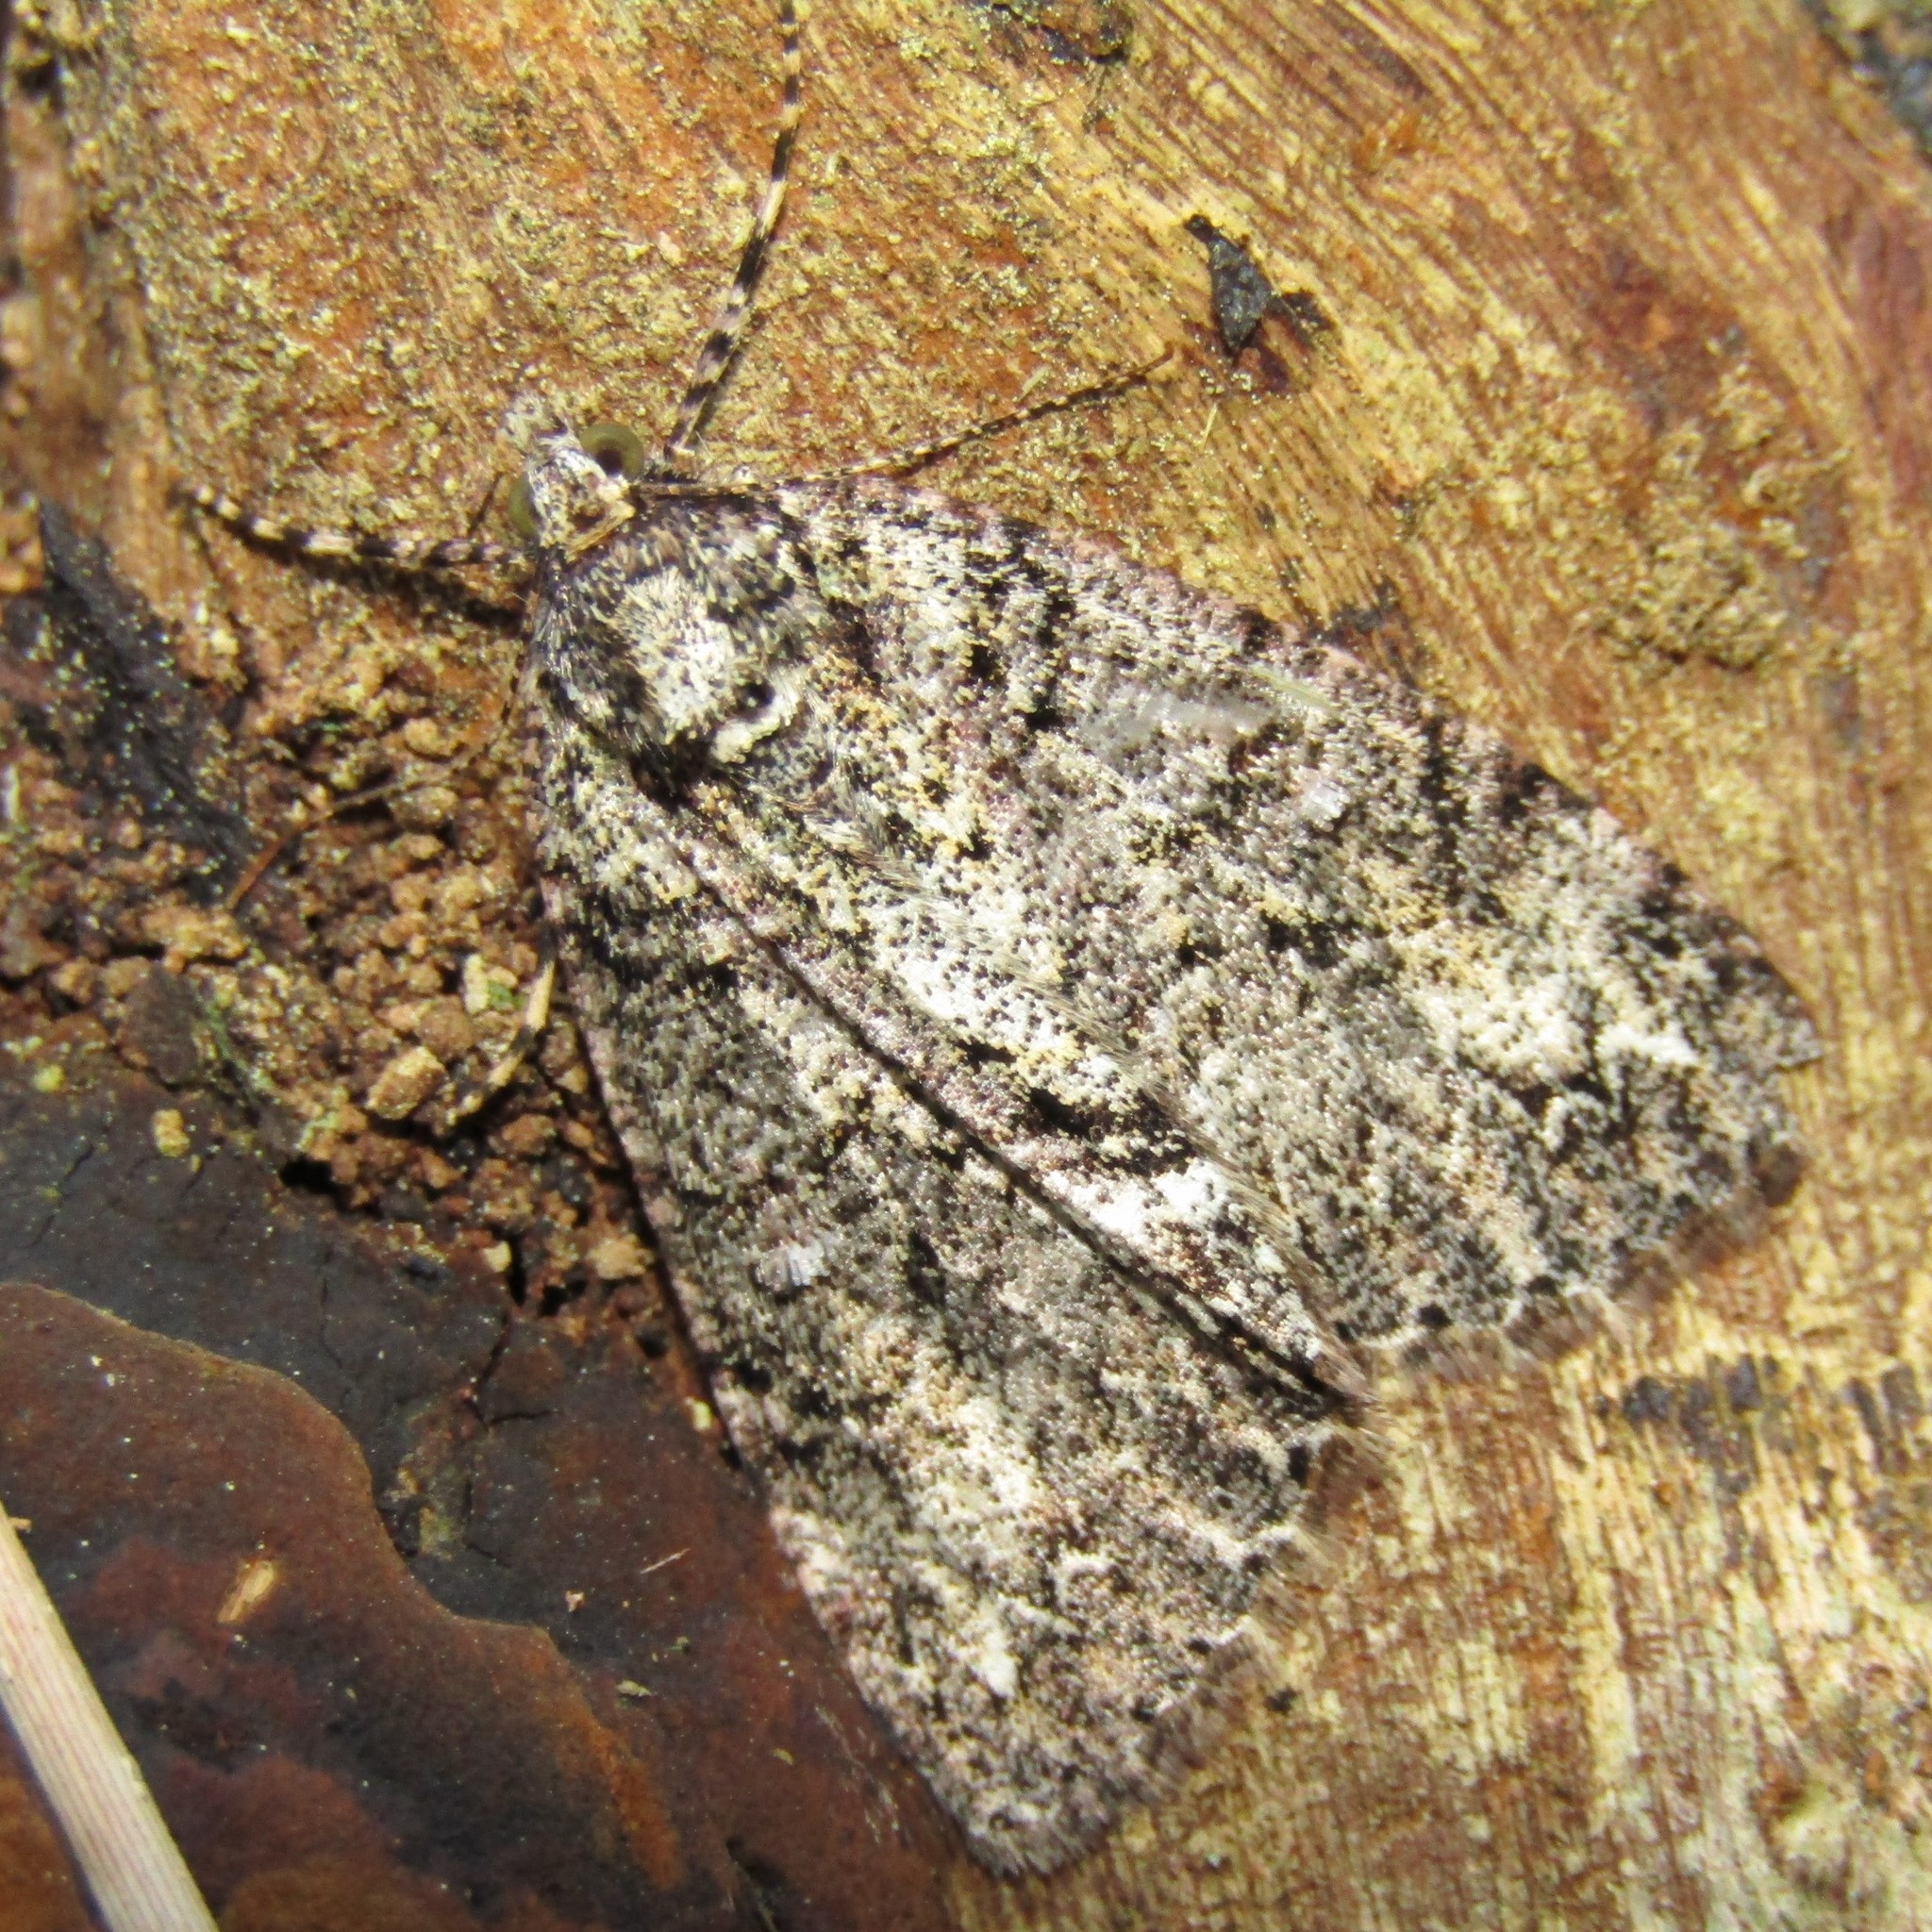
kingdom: Animalia
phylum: Arthropoda
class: Insecta
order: Lepidoptera
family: Geometridae
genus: Pseudocoremia
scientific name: Pseudocoremia suavis
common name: Common forest looper
